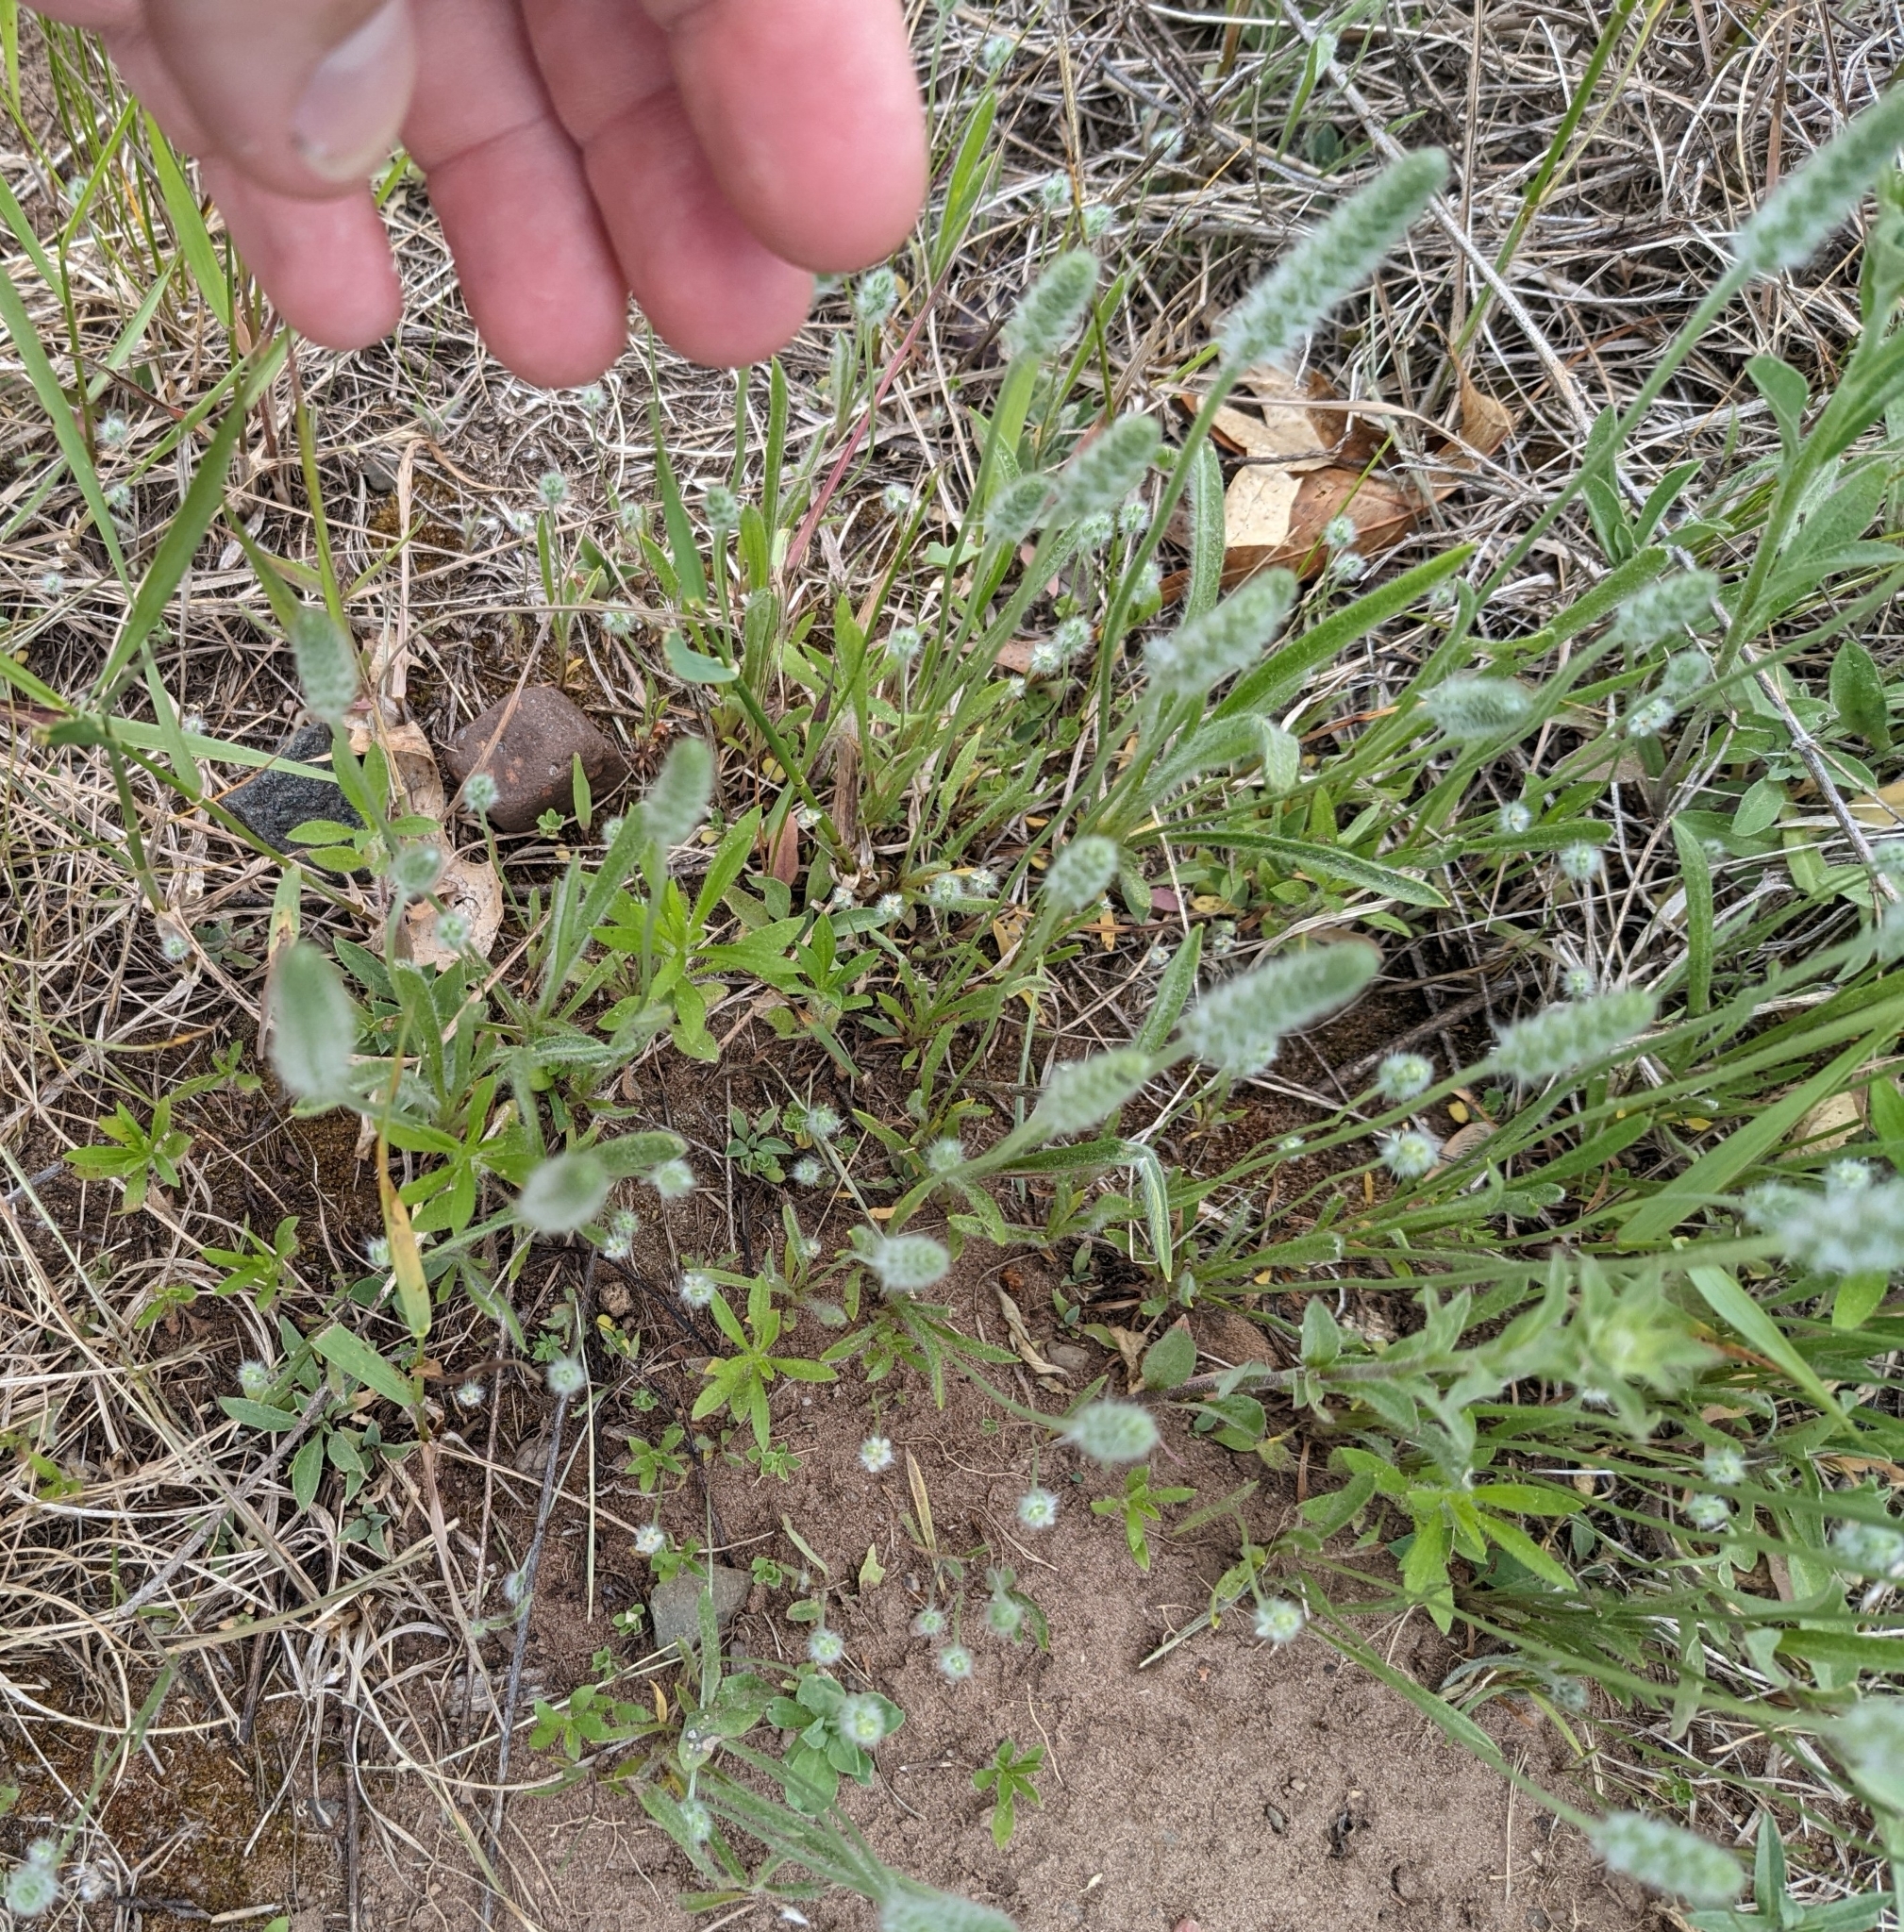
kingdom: Plantae
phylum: Tracheophyta
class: Magnoliopsida
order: Lamiales
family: Plantaginaceae
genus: Plantago
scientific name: Plantago patagonica
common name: Patagonia indian-wheat
